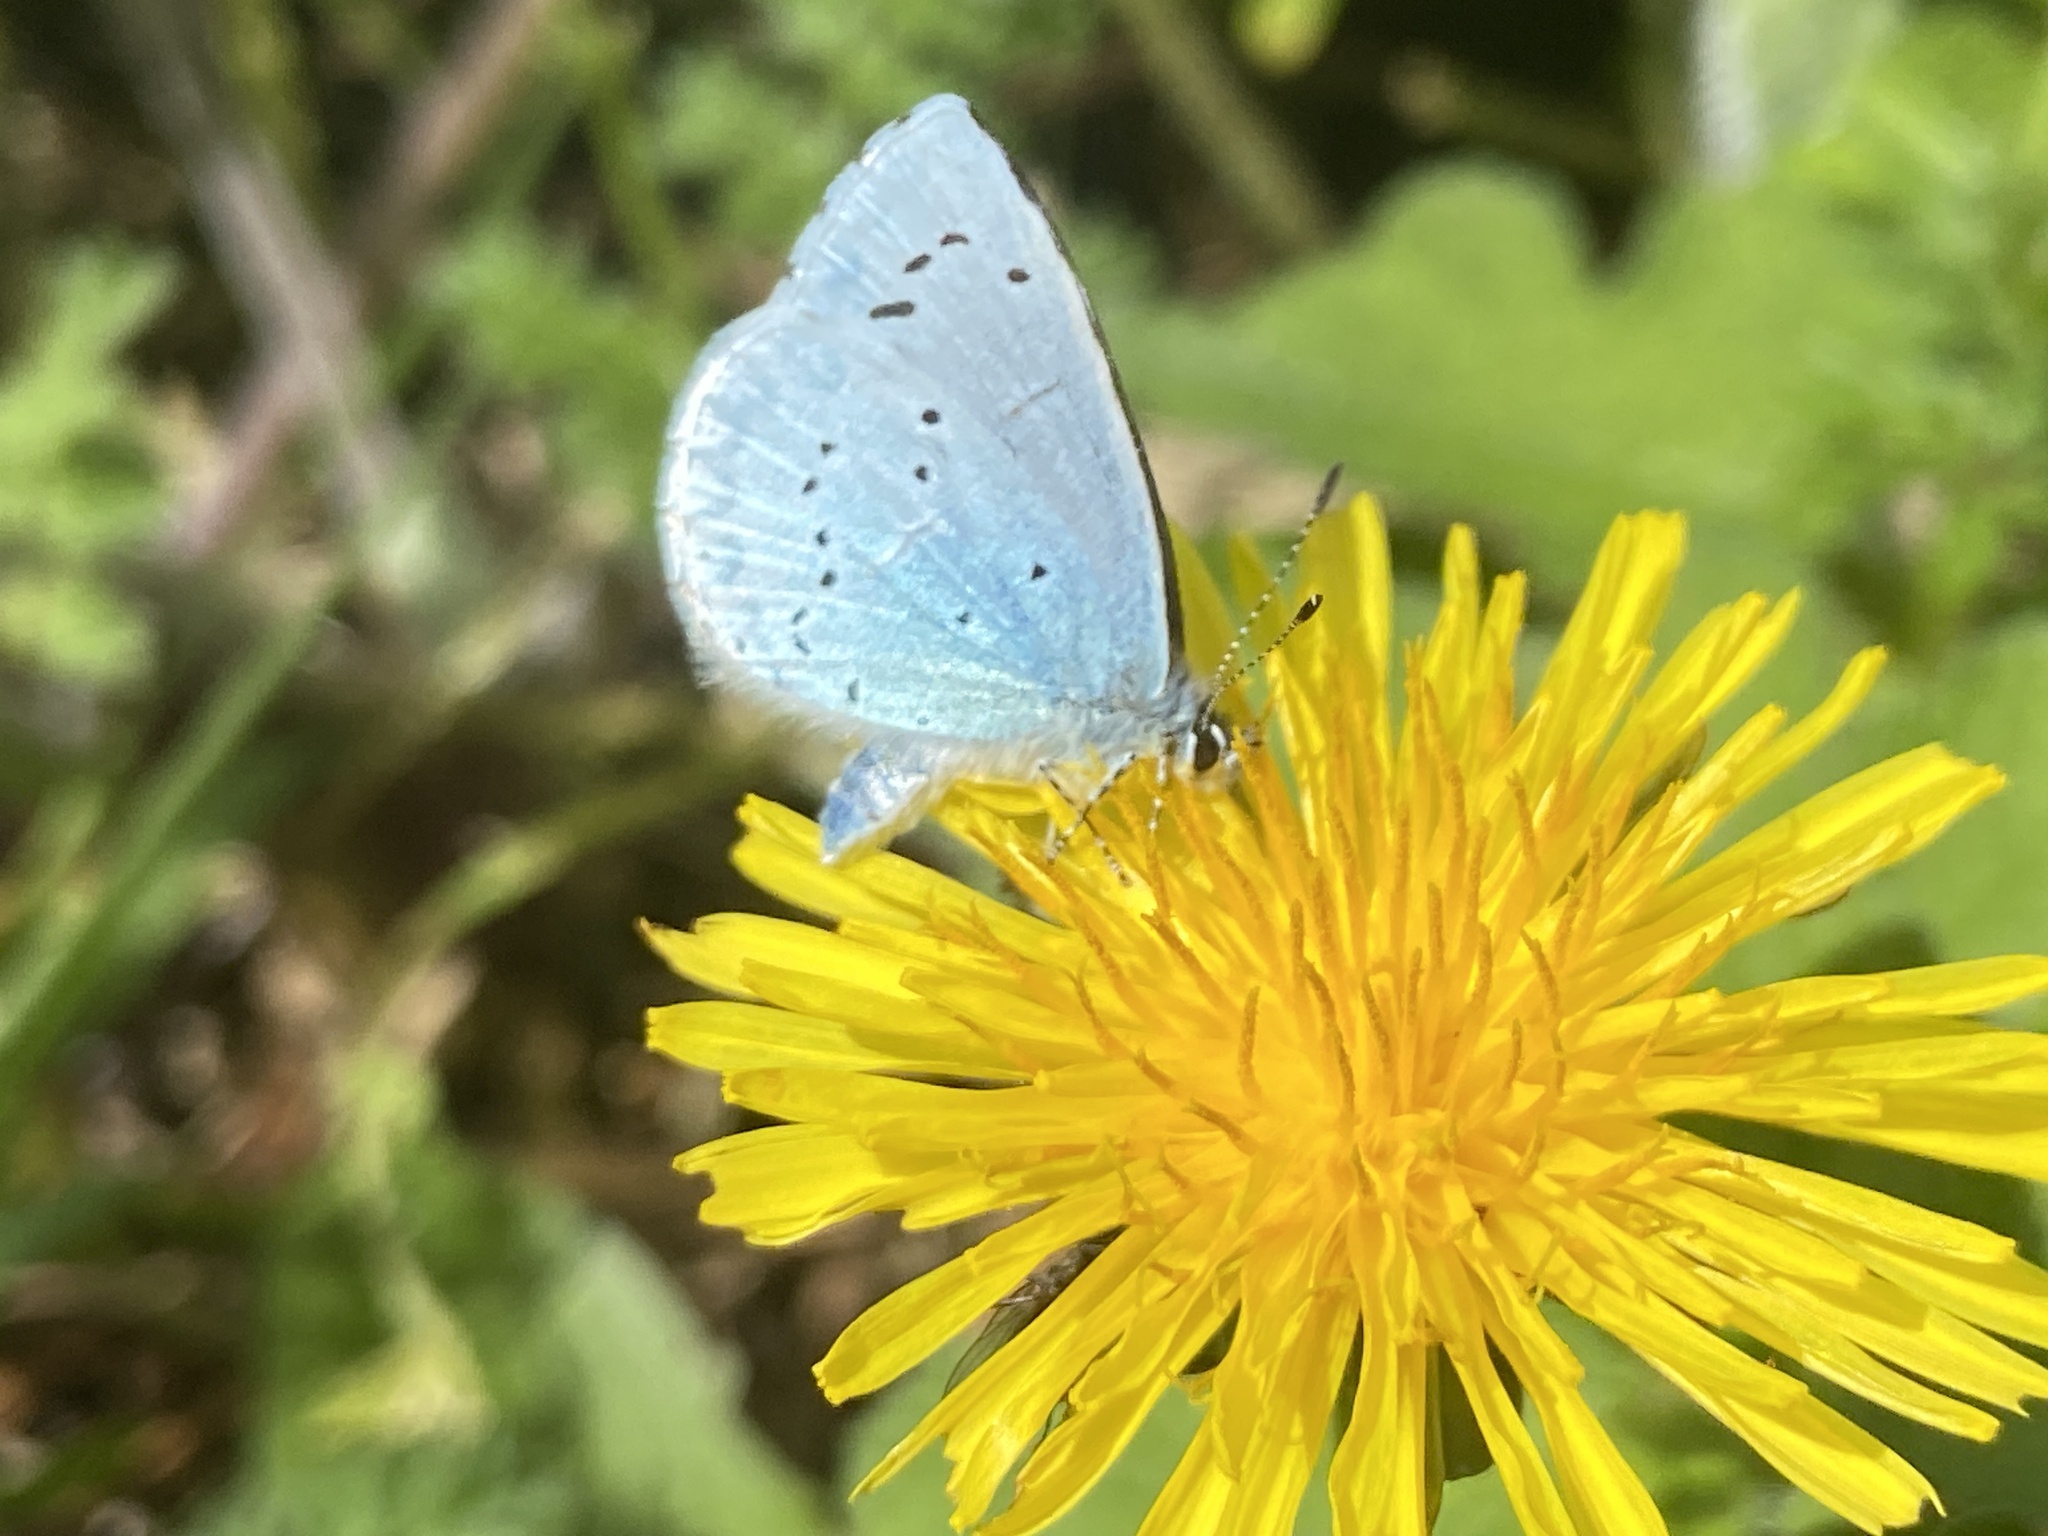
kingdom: Animalia
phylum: Arthropoda
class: Insecta
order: Lepidoptera
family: Lycaenidae
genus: Celastrina
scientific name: Celastrina argiolus
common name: Holly blue
